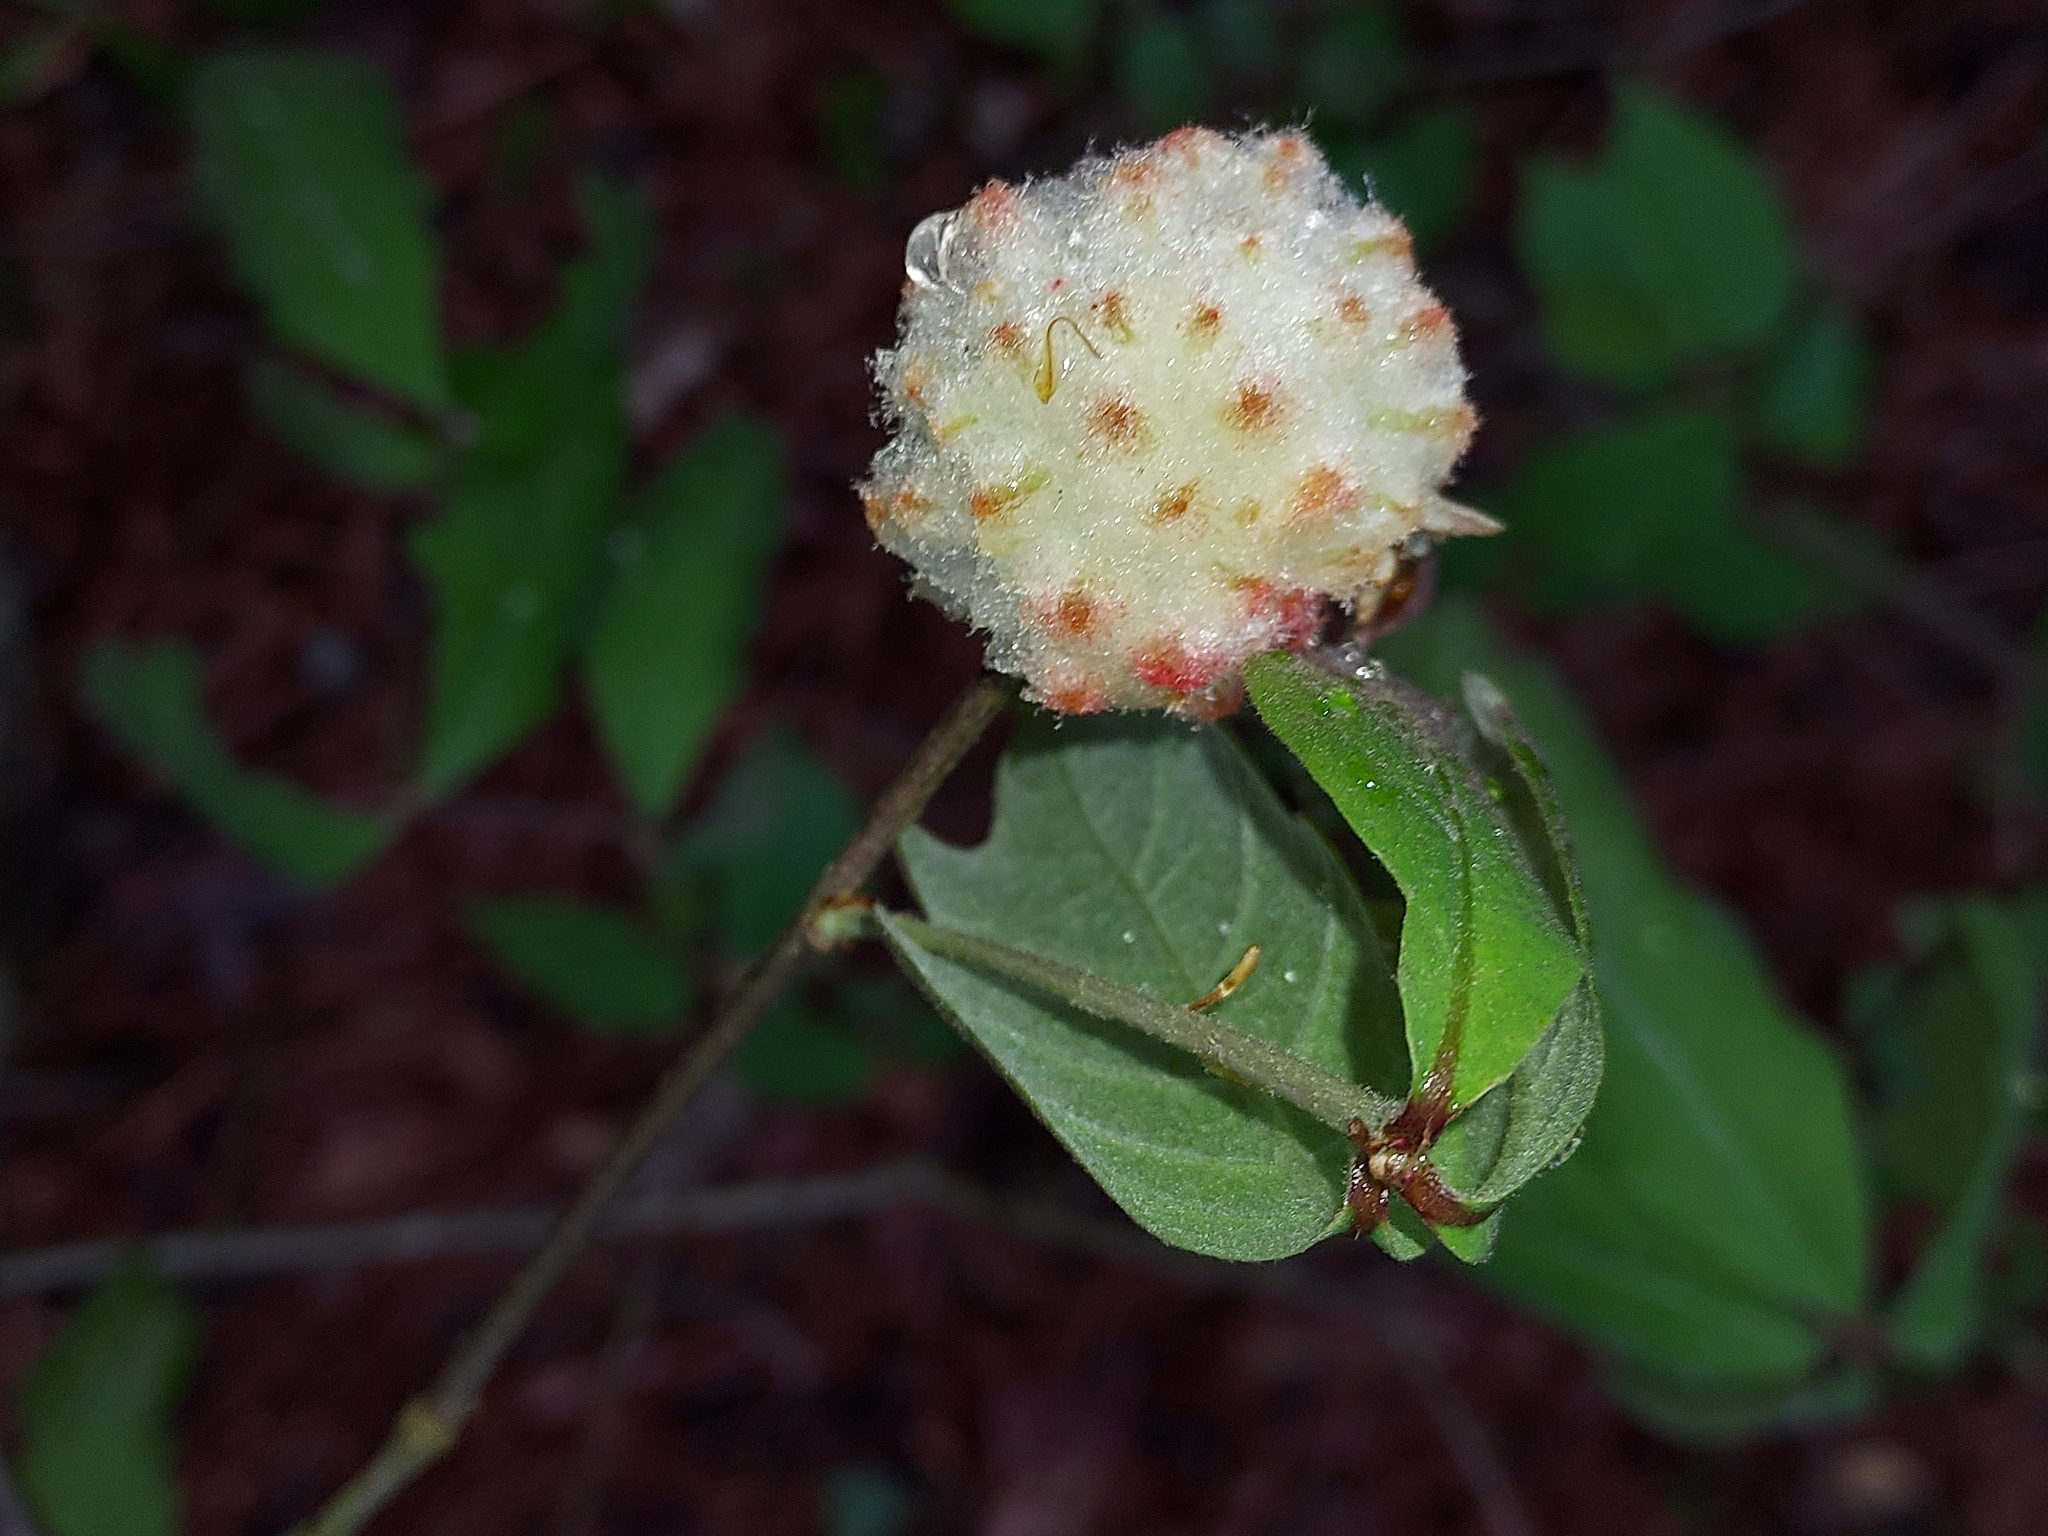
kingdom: Animalia
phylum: Arthropoda
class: Insecta
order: Hymenoptera
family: Cynipidae
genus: Callirhytis
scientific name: Callirhytis
